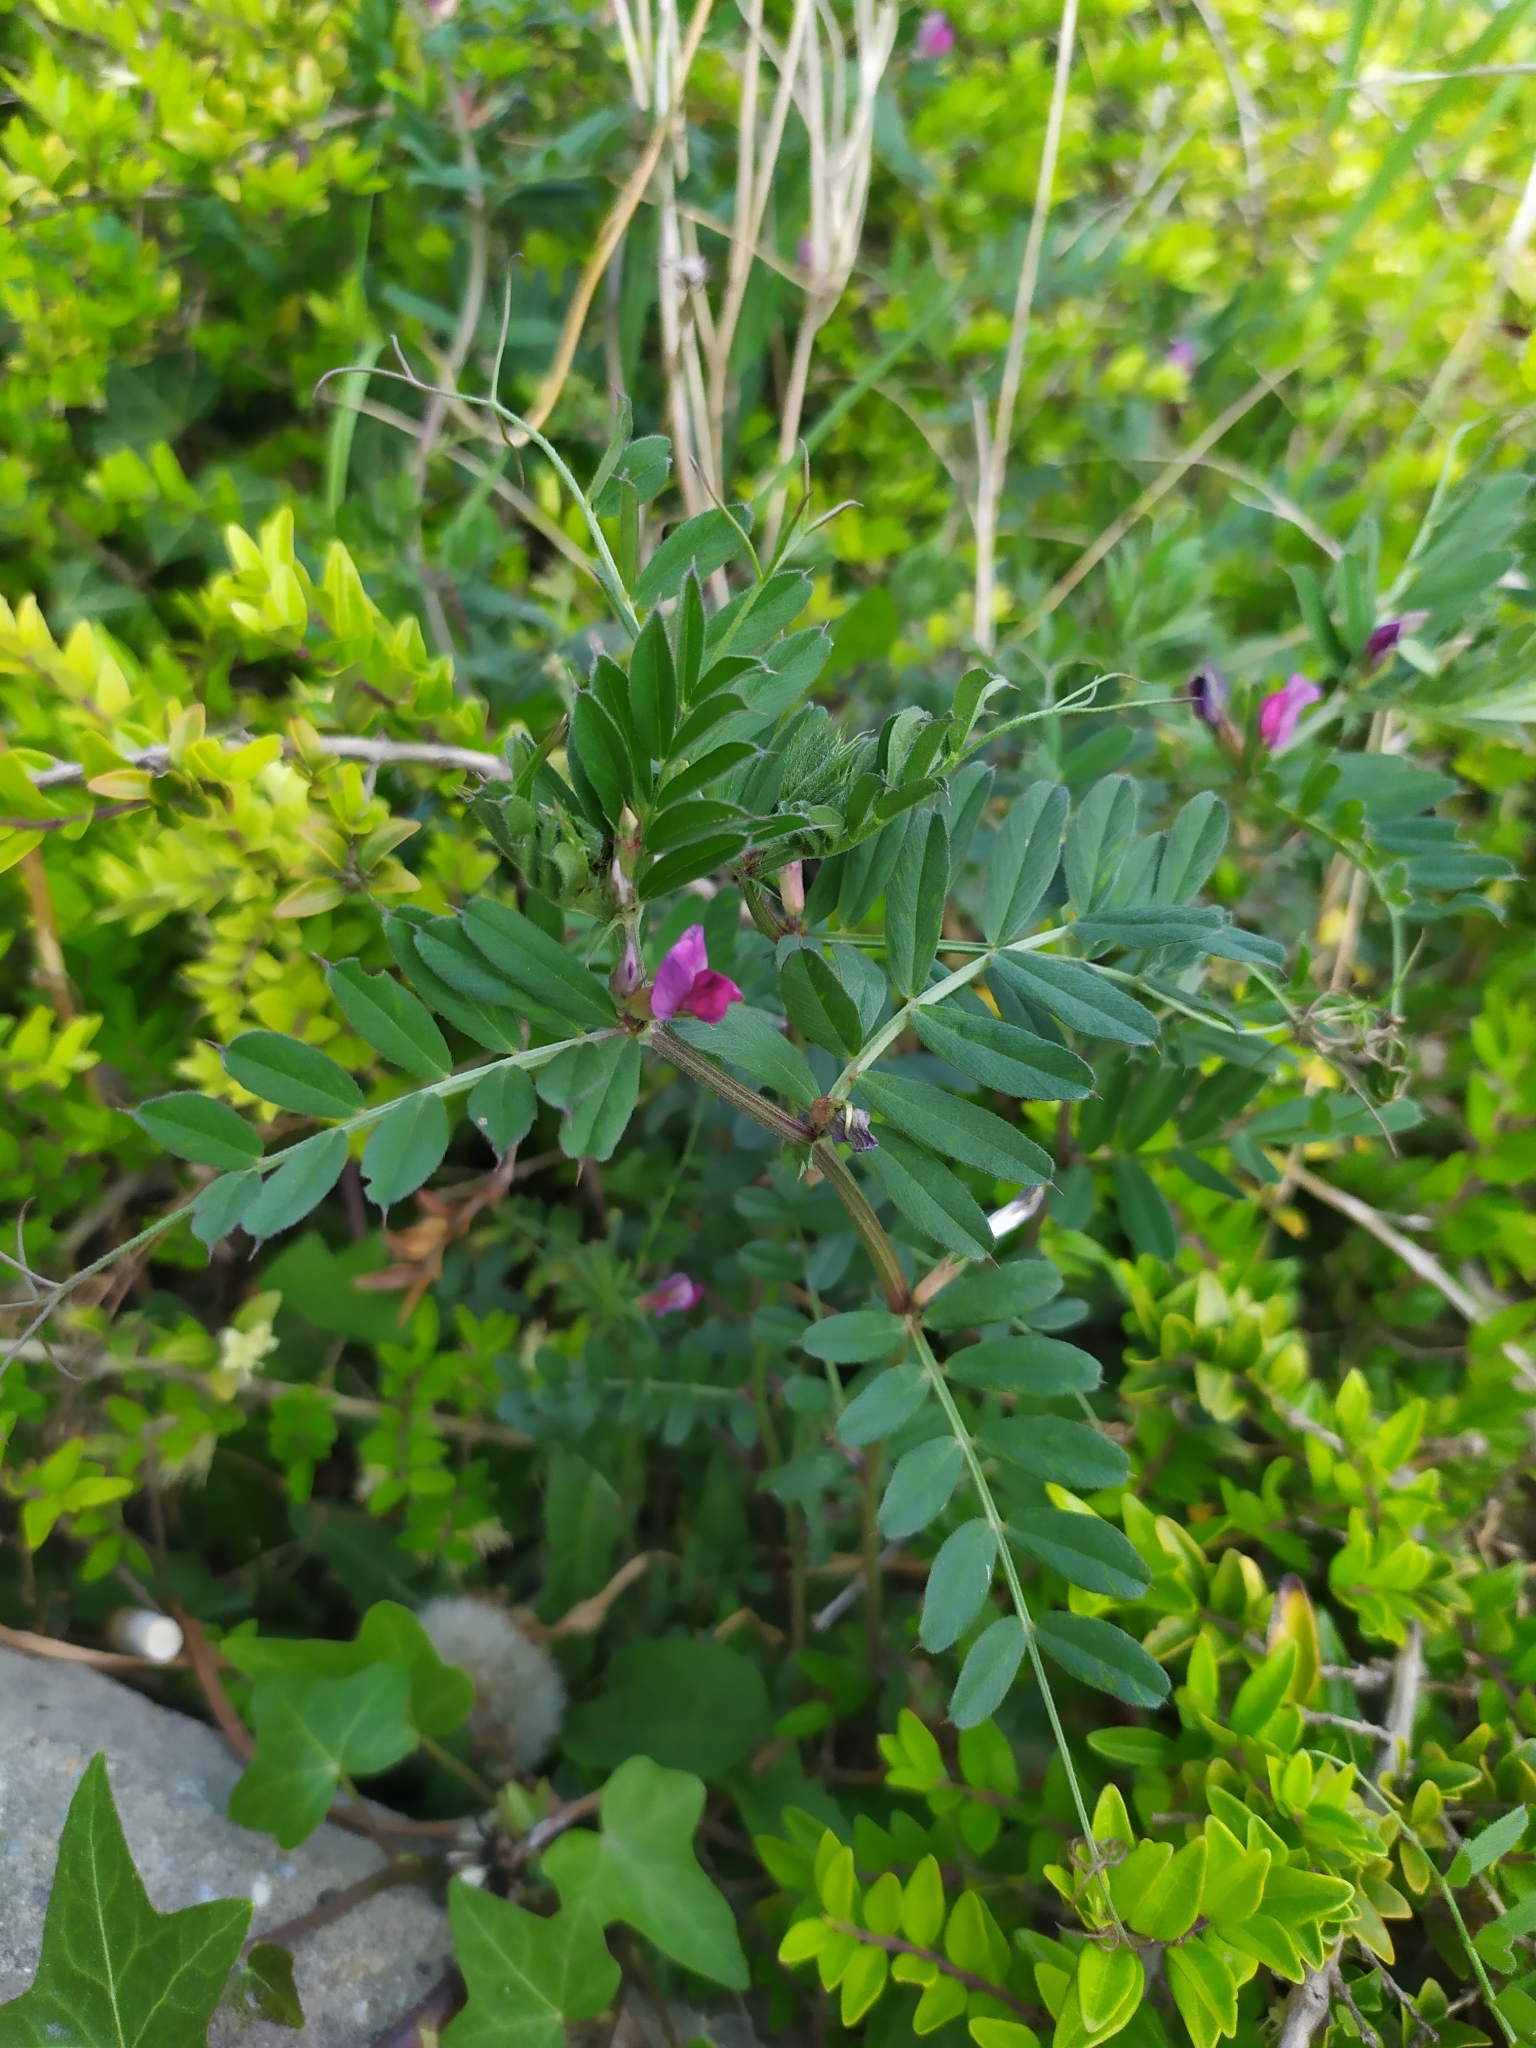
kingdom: Plantae
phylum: Tracheophyta
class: Magnoliopsida
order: Fabales
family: Fabaceae
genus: Vicia
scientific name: Vicia sativa
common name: Garden vetch
